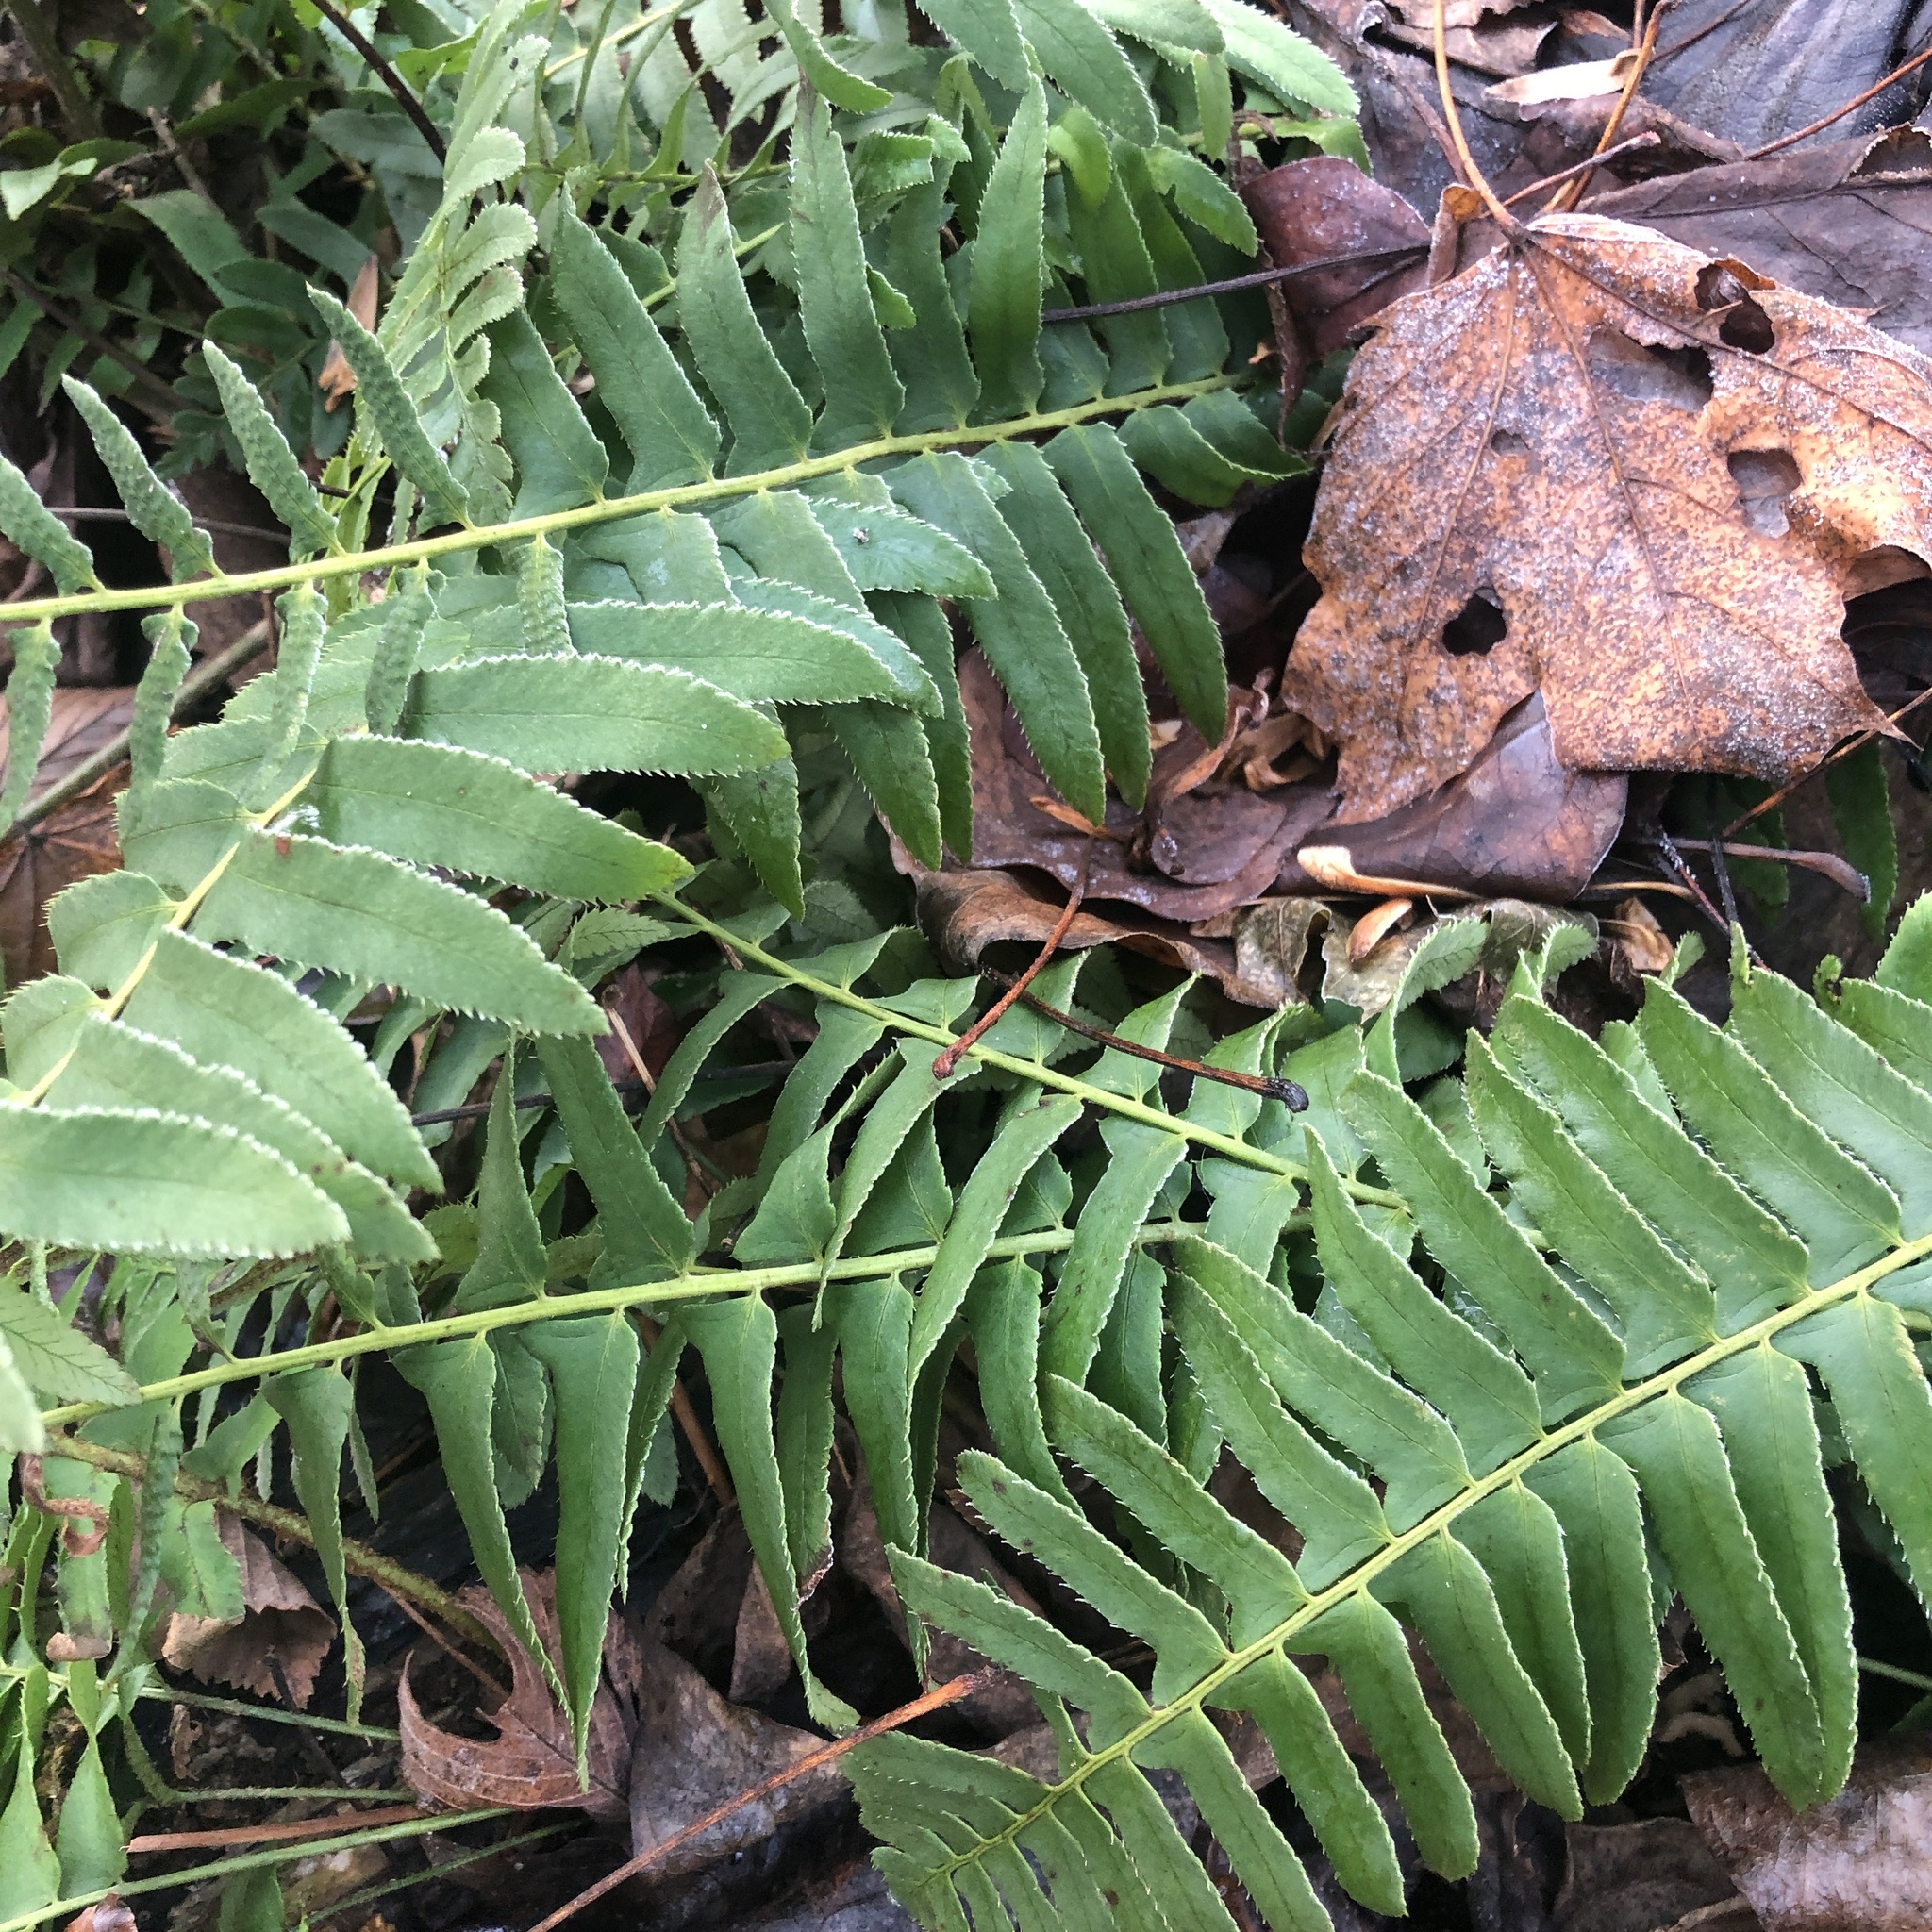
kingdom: Plantae
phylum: Tracheophyta
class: Polypodiopsida
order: Polypodiales
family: Dryopteridaceae
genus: Polystichum
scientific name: Polystichum acrostichoides
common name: Christmas fern
